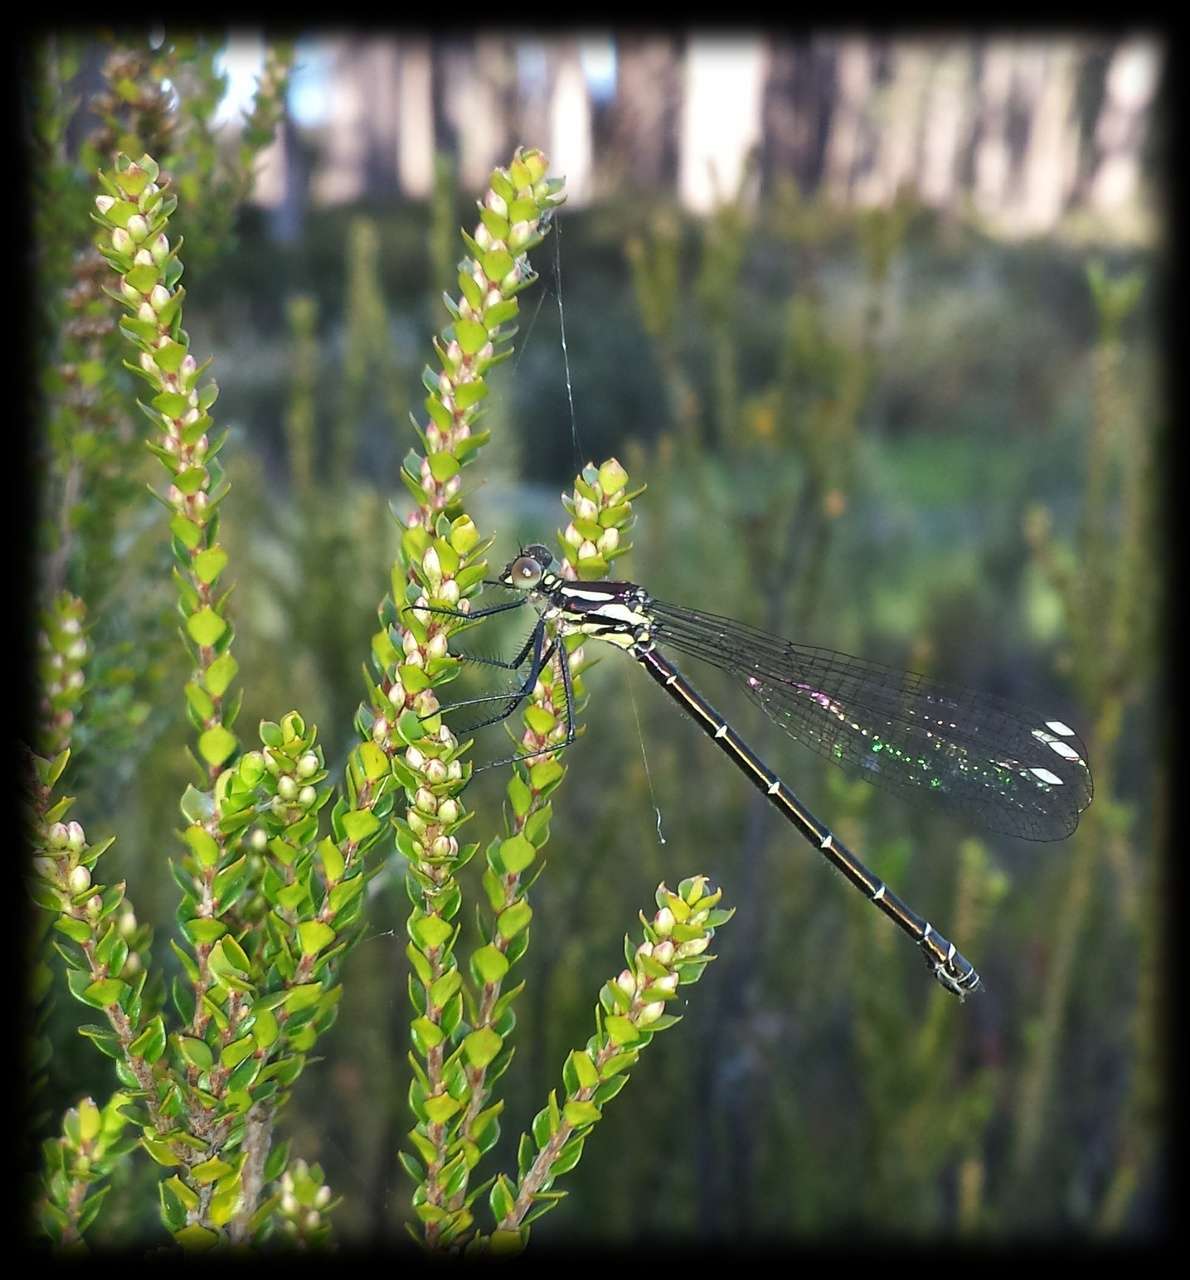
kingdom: Animalia
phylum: Arthropoda
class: Insecta
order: Odonata
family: Argiolestidae
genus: Austroargiolestes
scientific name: Austroargiolestes calcaris
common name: Powdered flatwing
